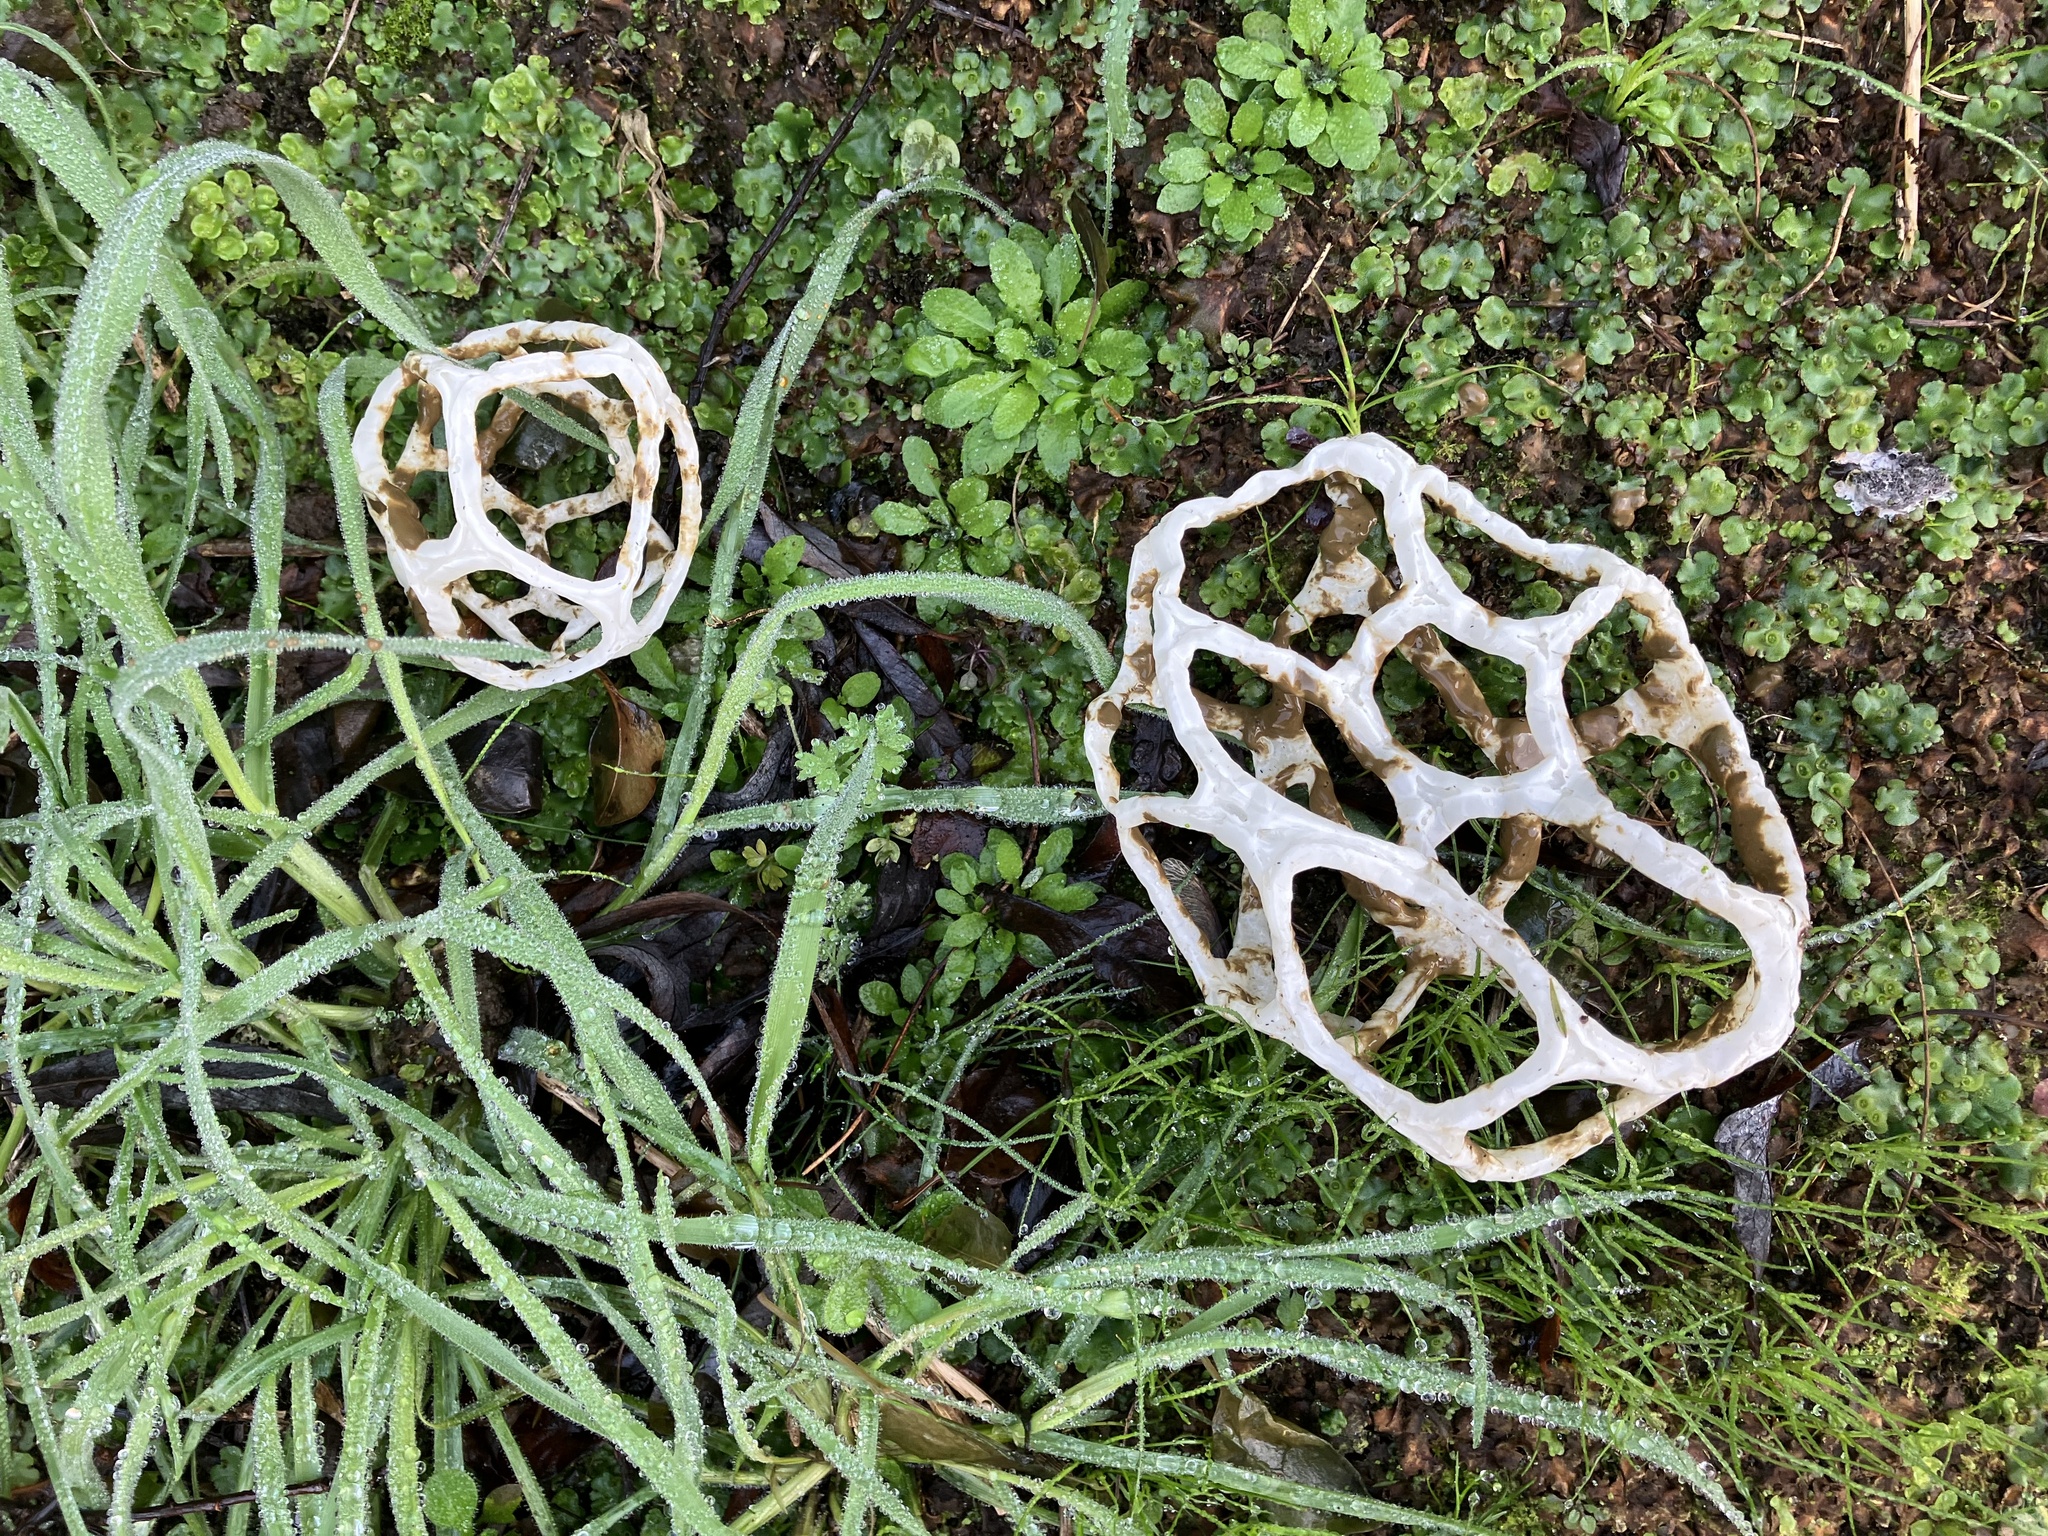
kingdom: Fungi
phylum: Basidiomycota
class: Agaricomycetes
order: Phallales
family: Phallaceae
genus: Ileodictyon
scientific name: Ileodictyon cibarium
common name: Basket fungus
